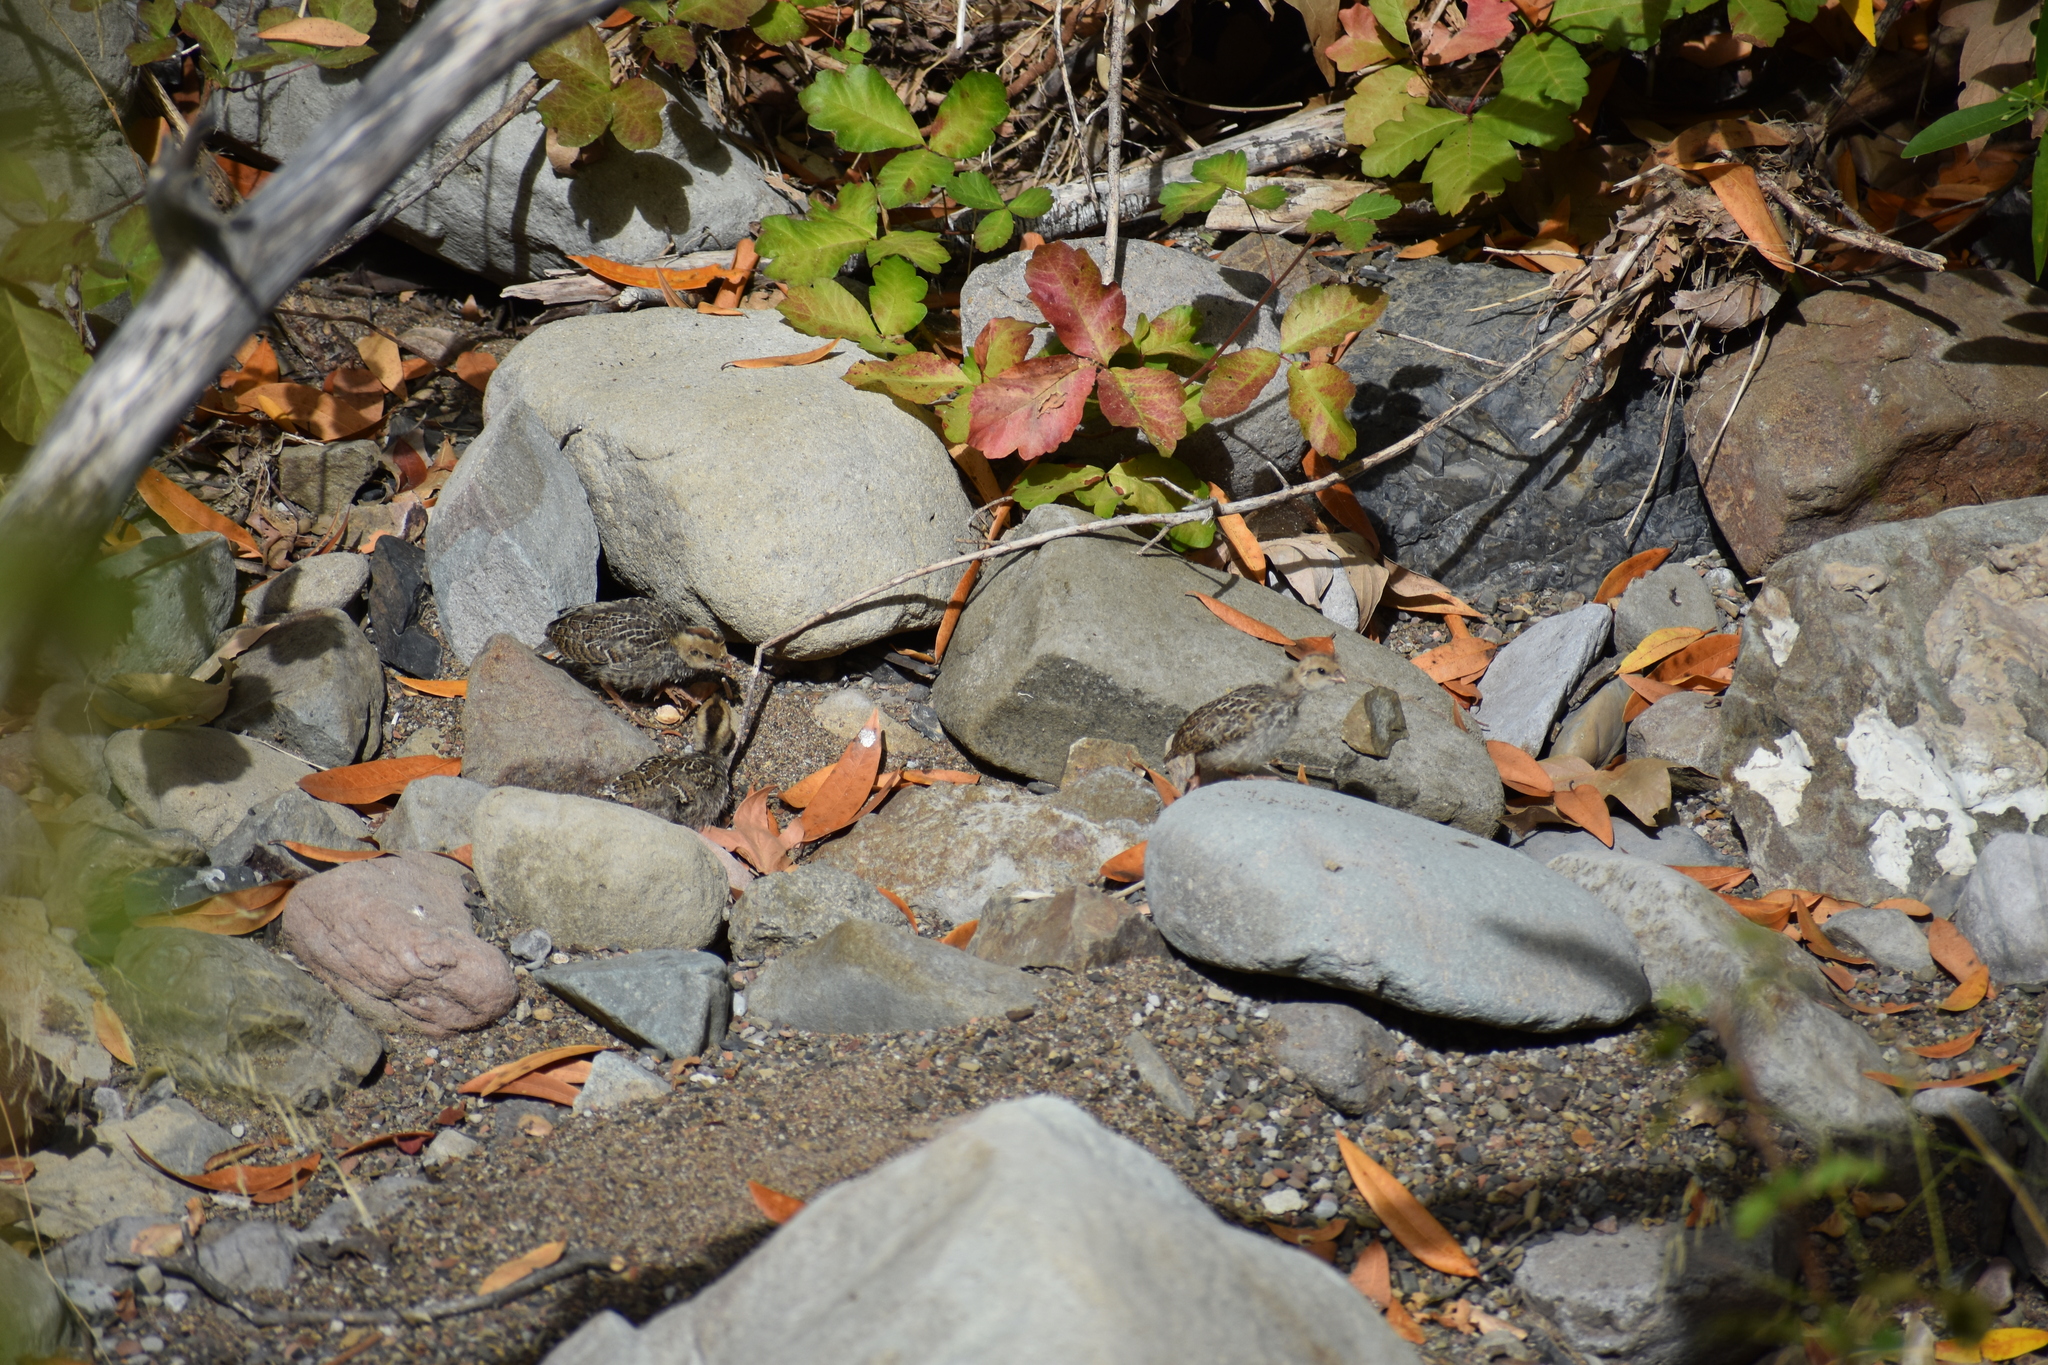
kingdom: Animalia
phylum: Chordata
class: Aves
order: Galliformes
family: Odontophoridae
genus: Callipepla
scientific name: Callipepla californica
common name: California quail
